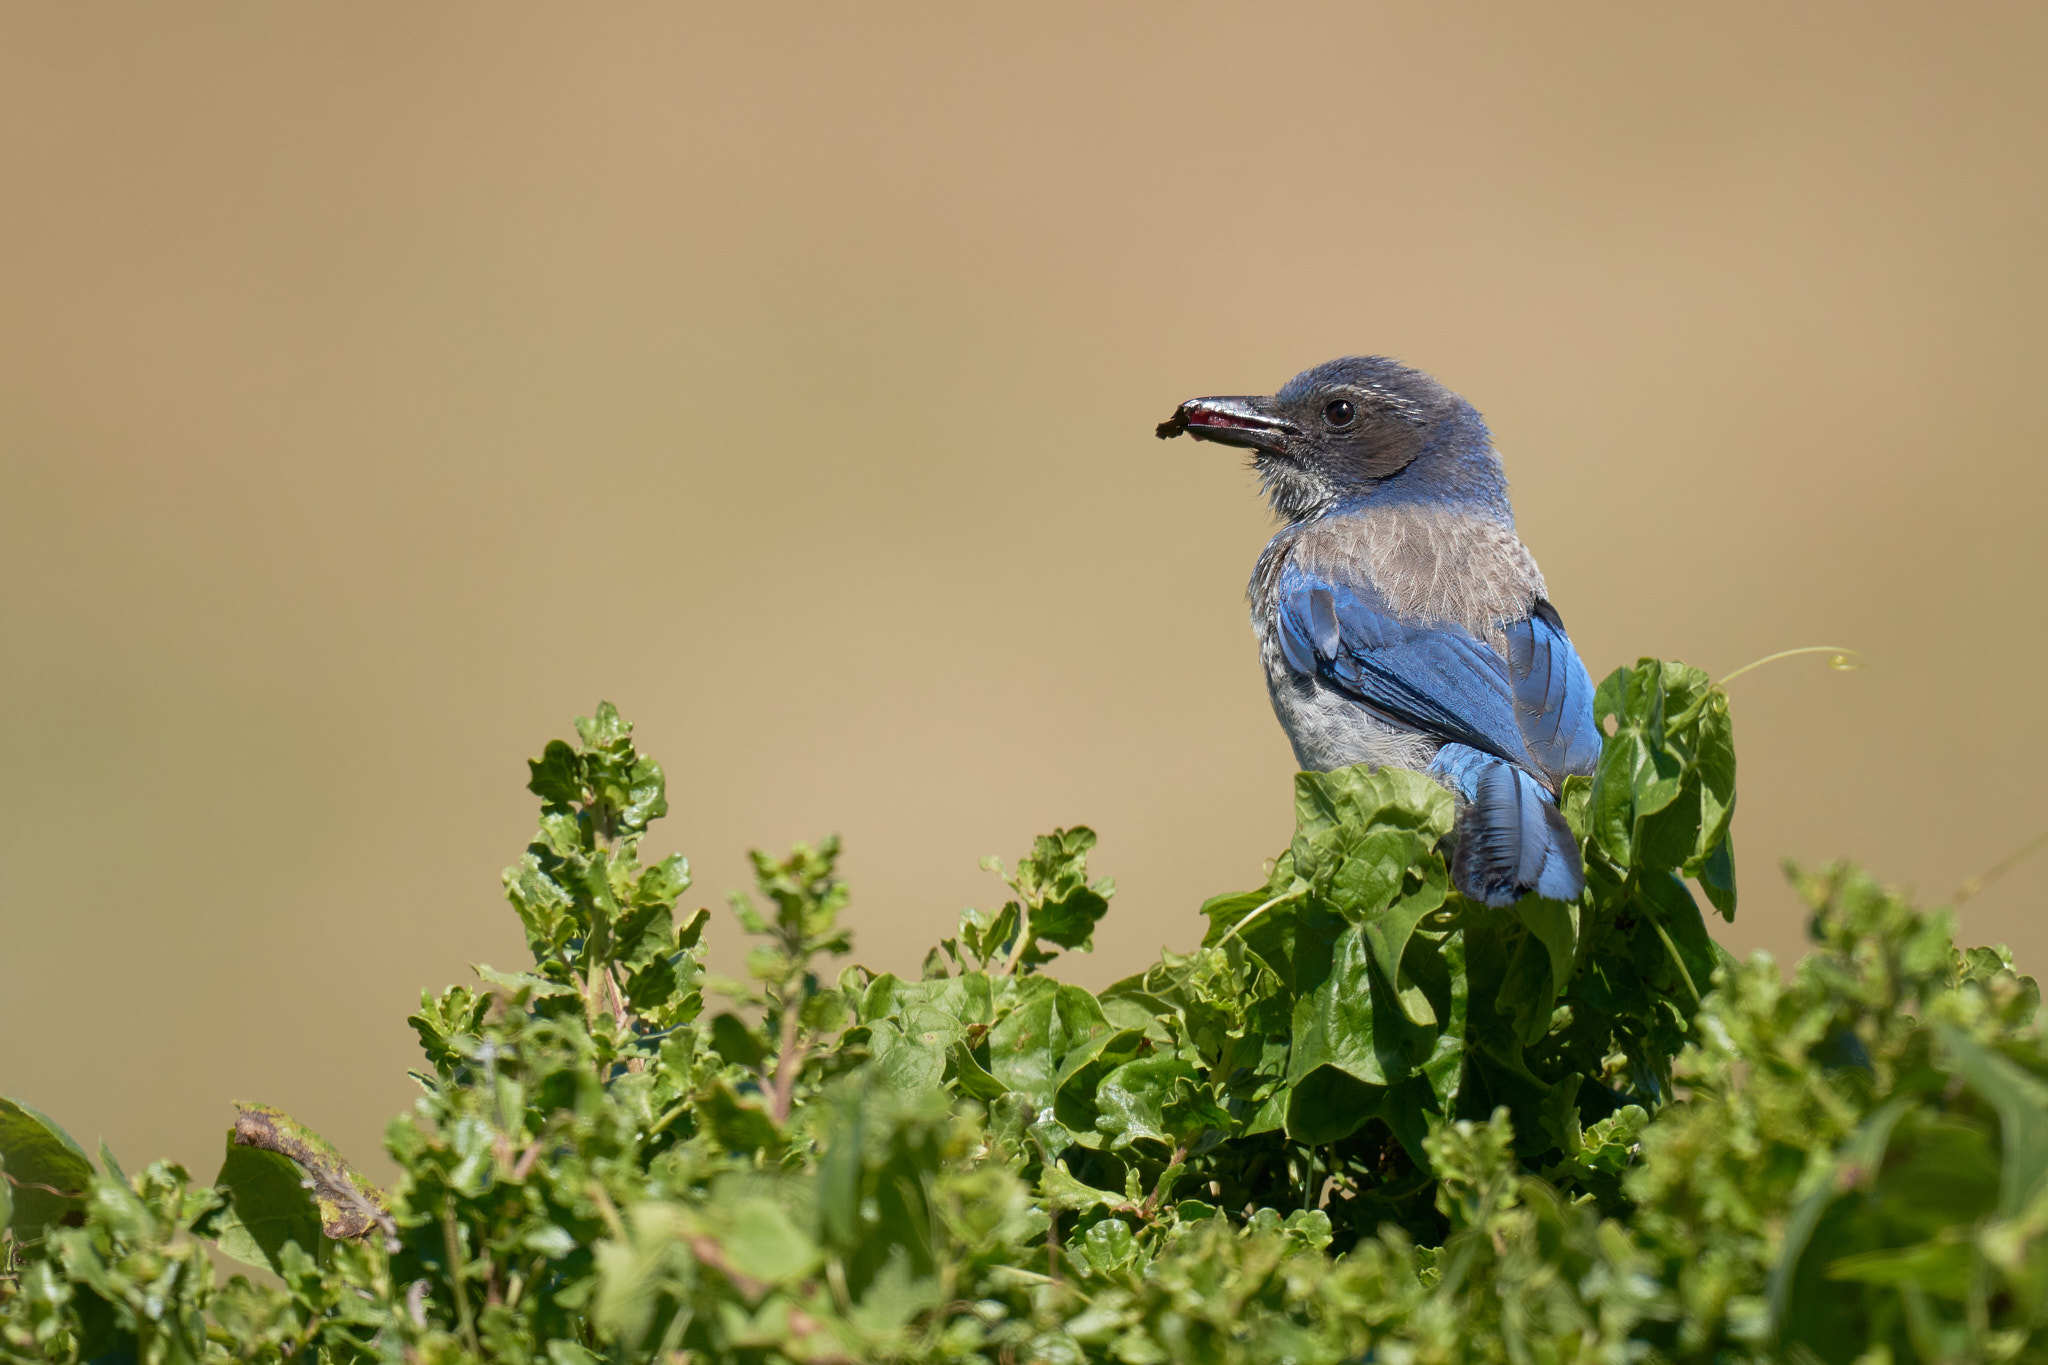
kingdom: Animalia
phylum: Chordata
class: Aves
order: Passeriformes
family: Corvidae
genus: Aphelocoma
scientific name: Aphelocoma californica
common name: California scrub-jay
